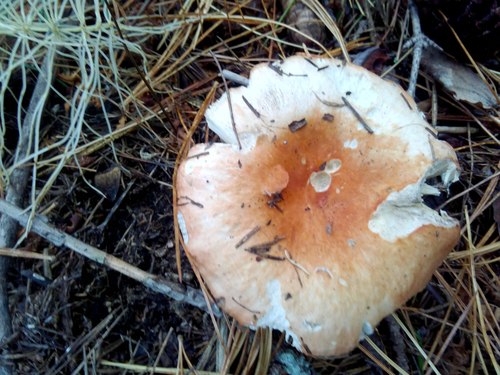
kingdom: Fungi
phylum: Basidiomycota
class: Agaricomycetes
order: Russulales
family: Russulaceae
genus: Russula
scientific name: Russula
